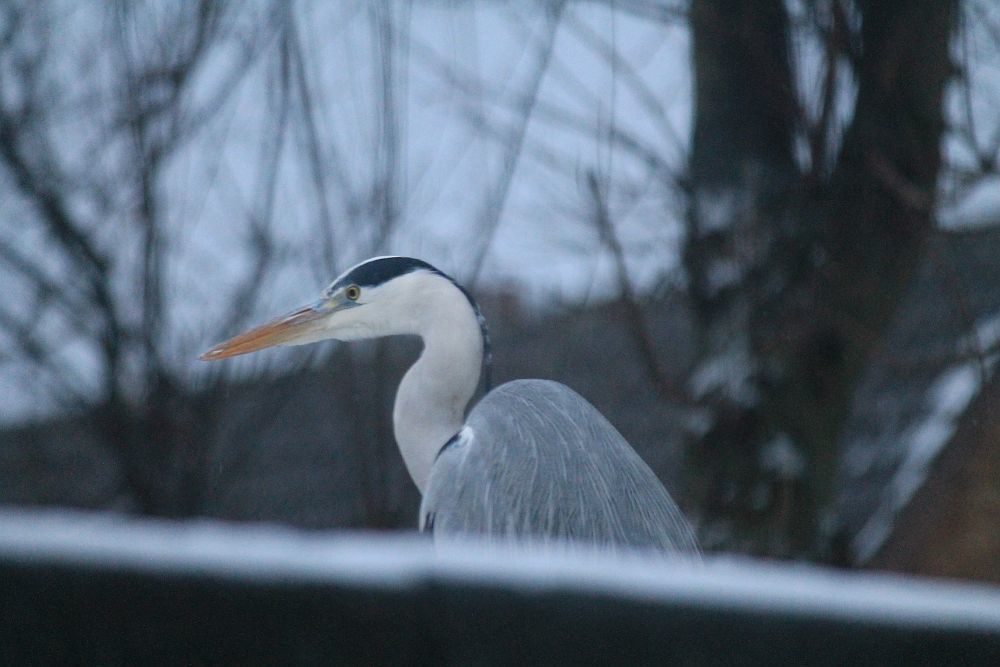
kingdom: Animalia
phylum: Chordata
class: Aves
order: Pelecaniformes
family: Ardeidae
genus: Ardea
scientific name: Ardea cinerea
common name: Grey heron
